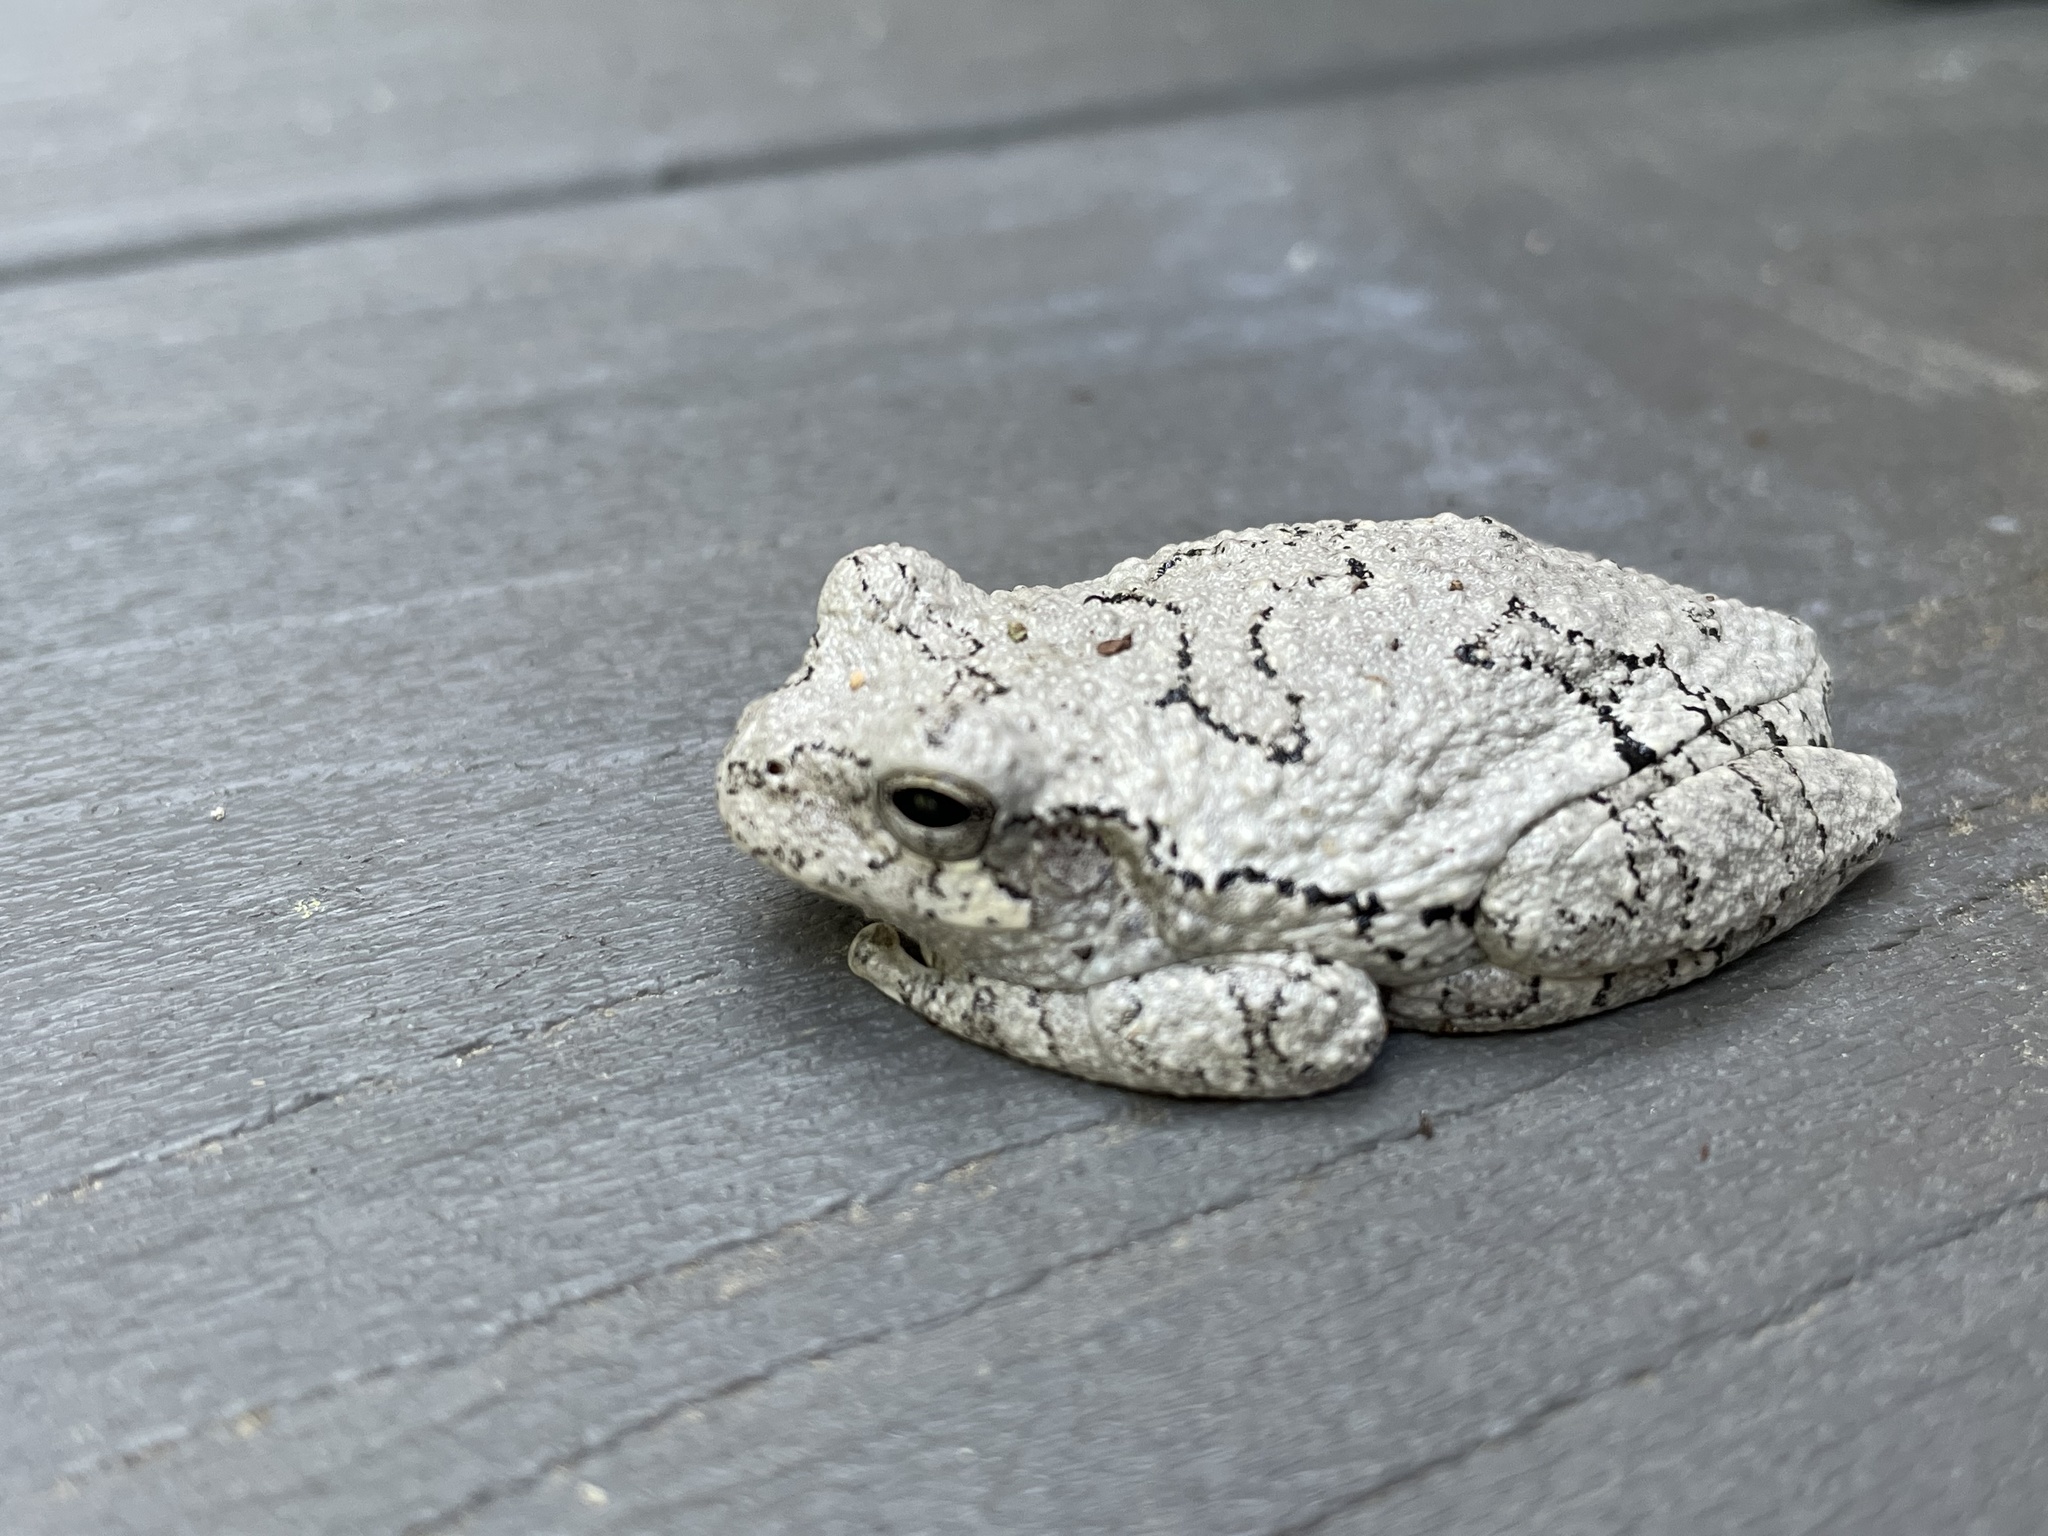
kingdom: Animalia
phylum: Chordata
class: Amphibia
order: Anura
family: Hylidae
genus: Dryophytes
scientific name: Dryophytes versicolor
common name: Gray treefrog
